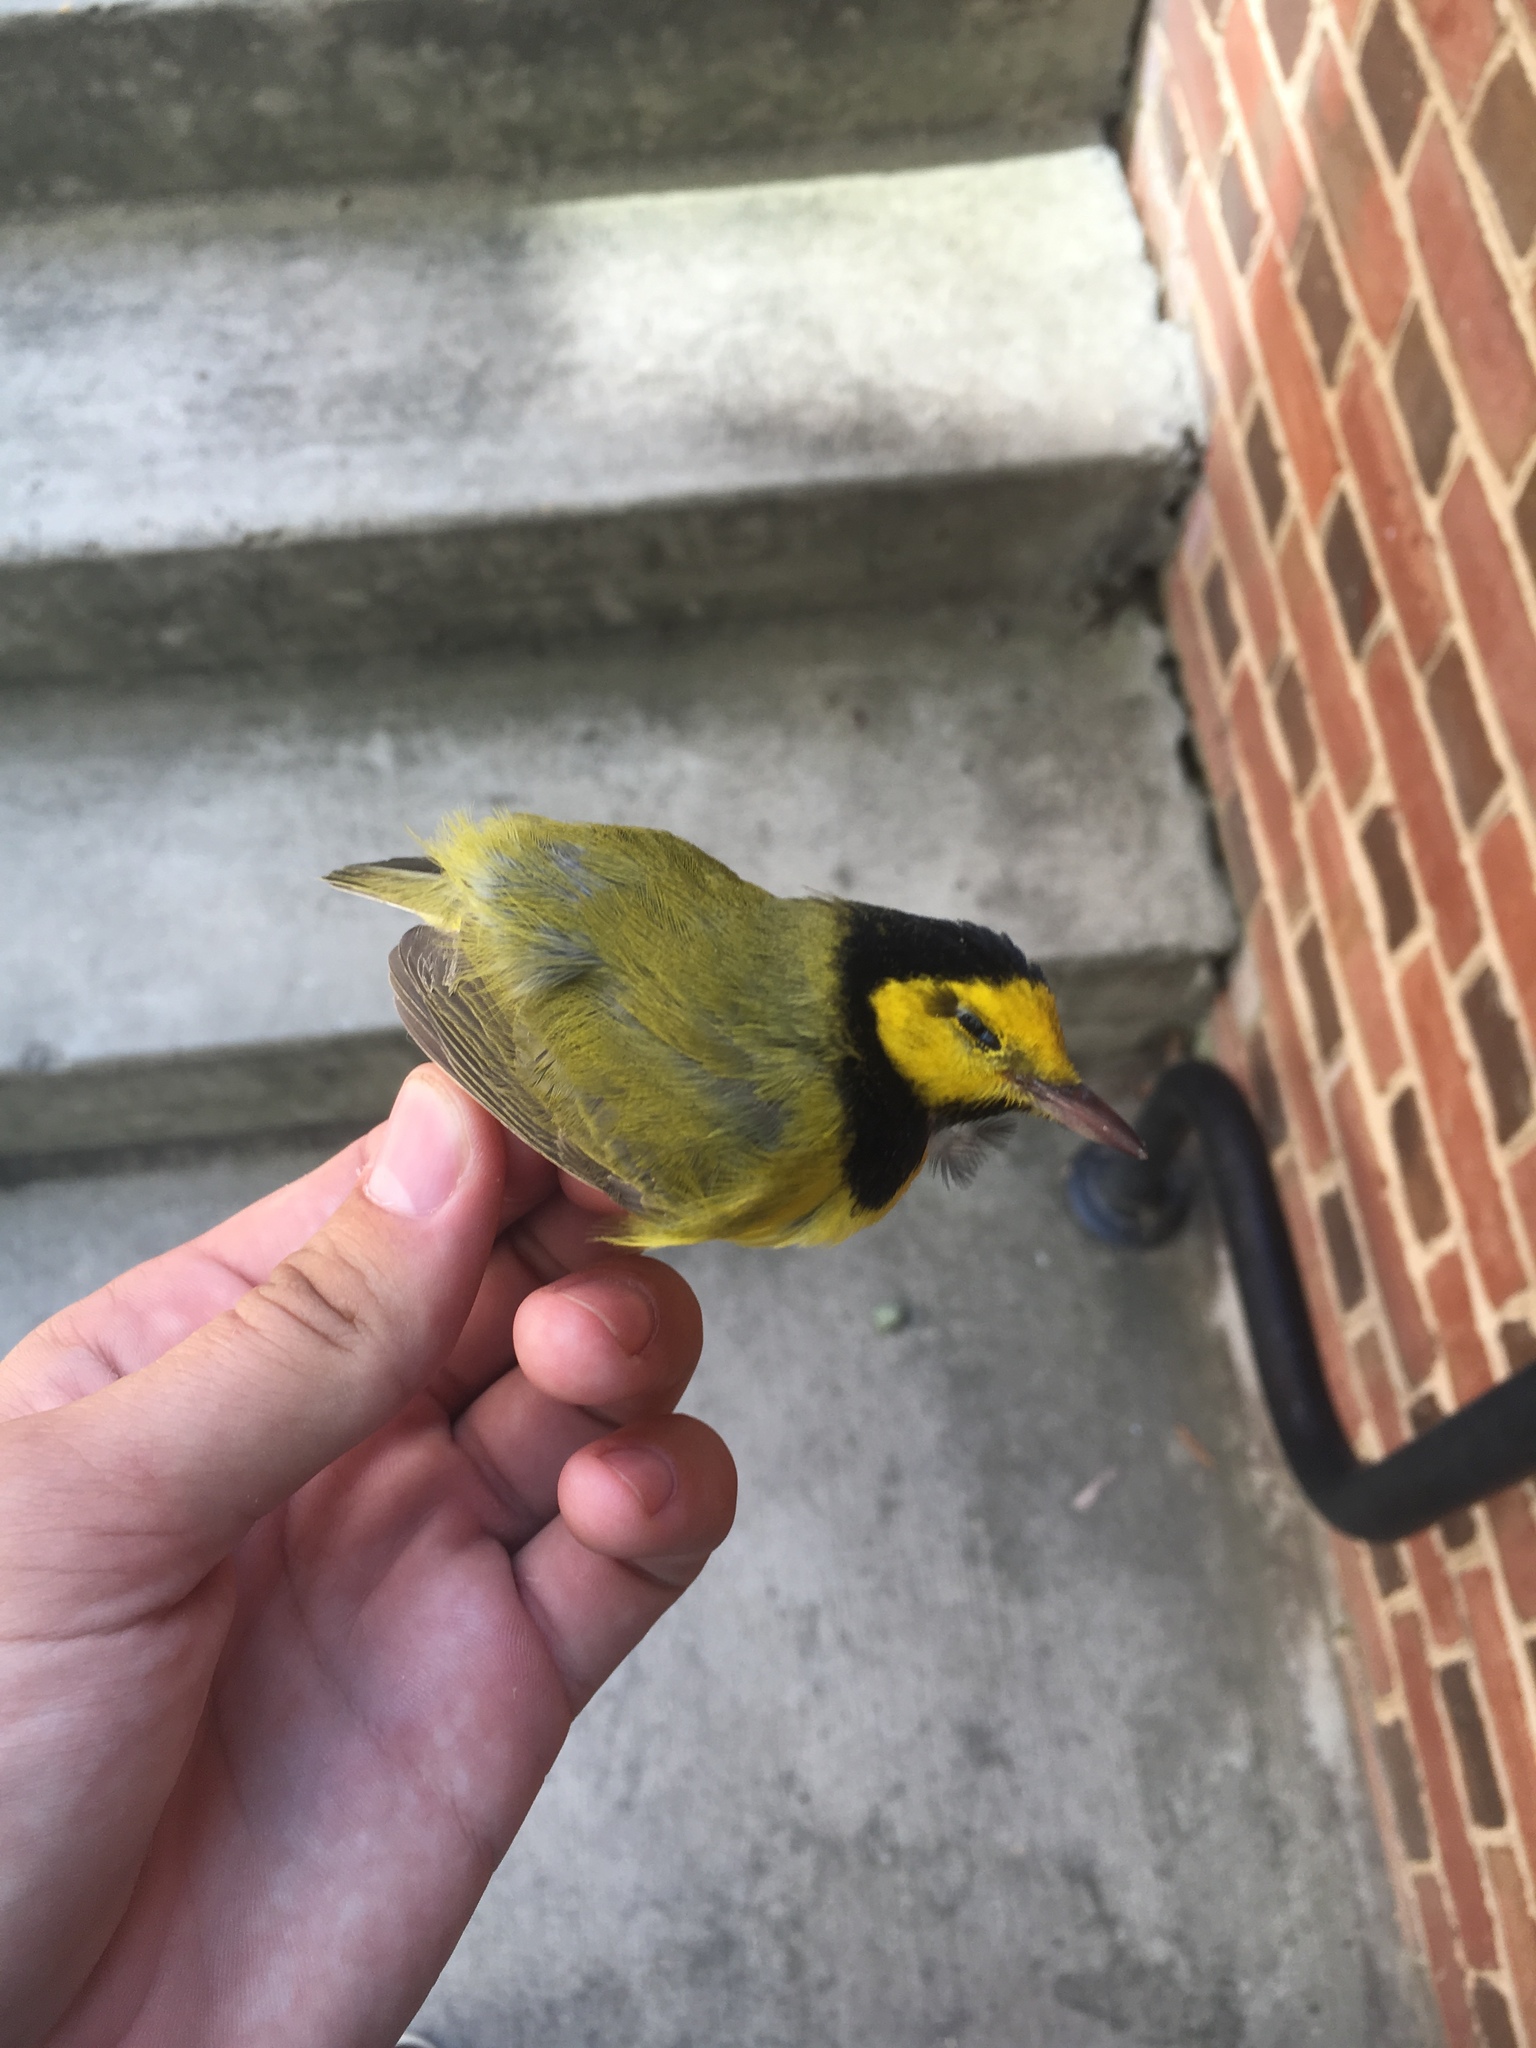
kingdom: Animalia
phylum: Chordata
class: Aves
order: Passeriformes
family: Parulidae
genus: Setophaga
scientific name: Setophaga citrina
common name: Hooded warbler
